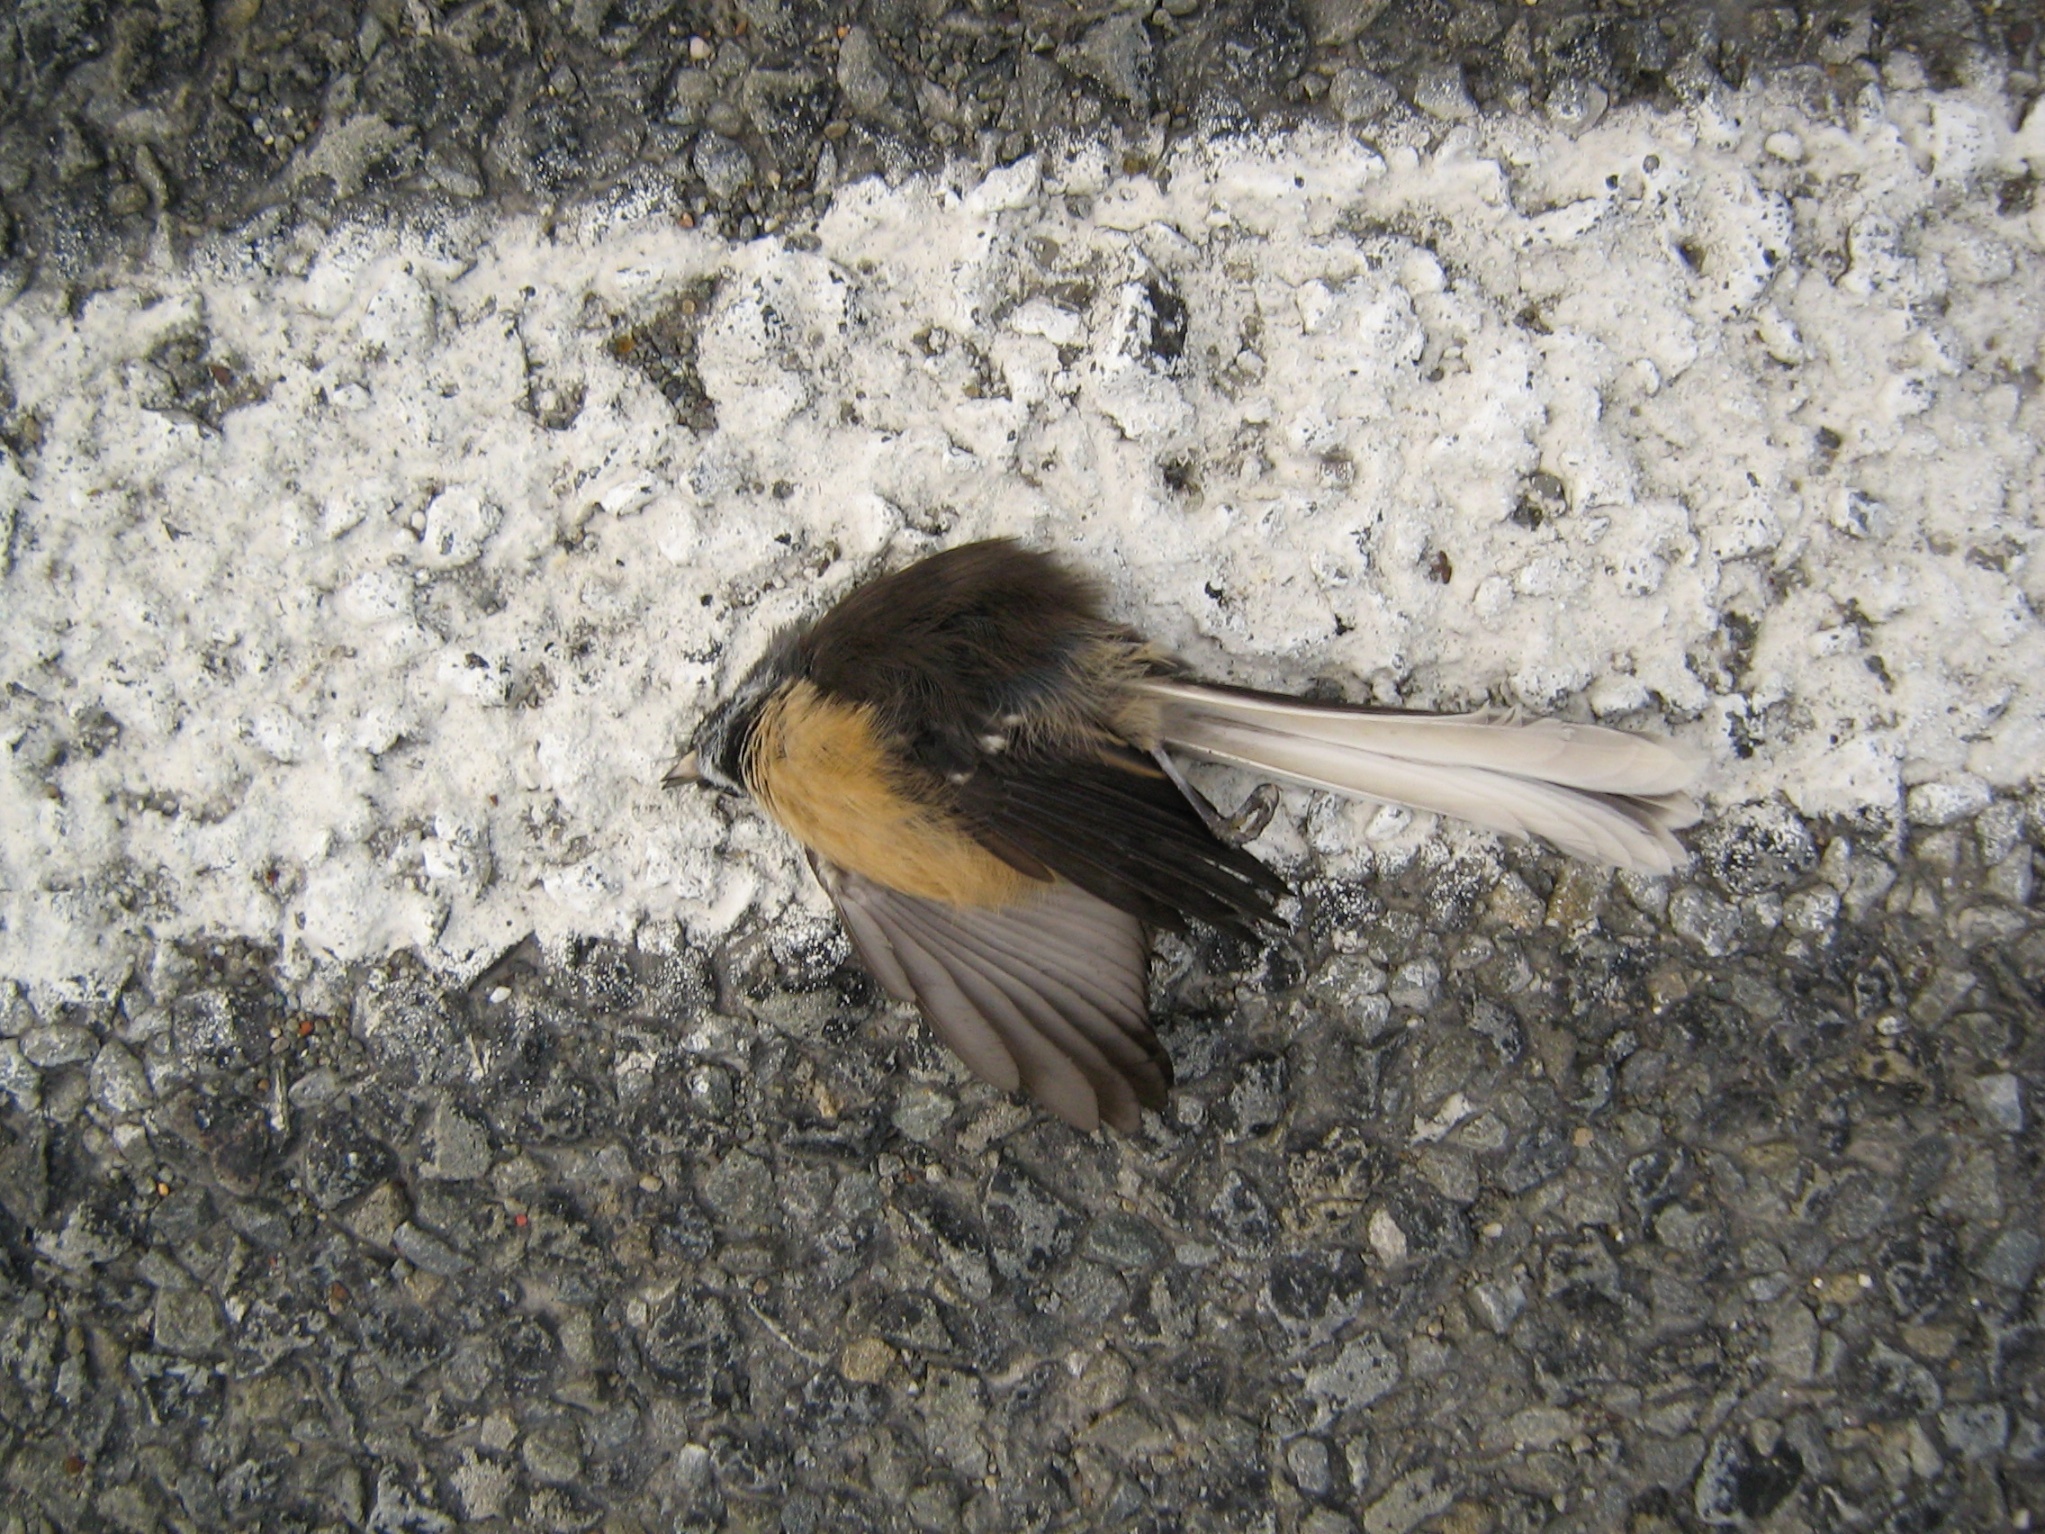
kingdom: Animalia
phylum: Chordata
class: Aves
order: Passeriformes
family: Rhipiduridae
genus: Rhipidura
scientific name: Rhipidura fuliginosa
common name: New zealand fantail
